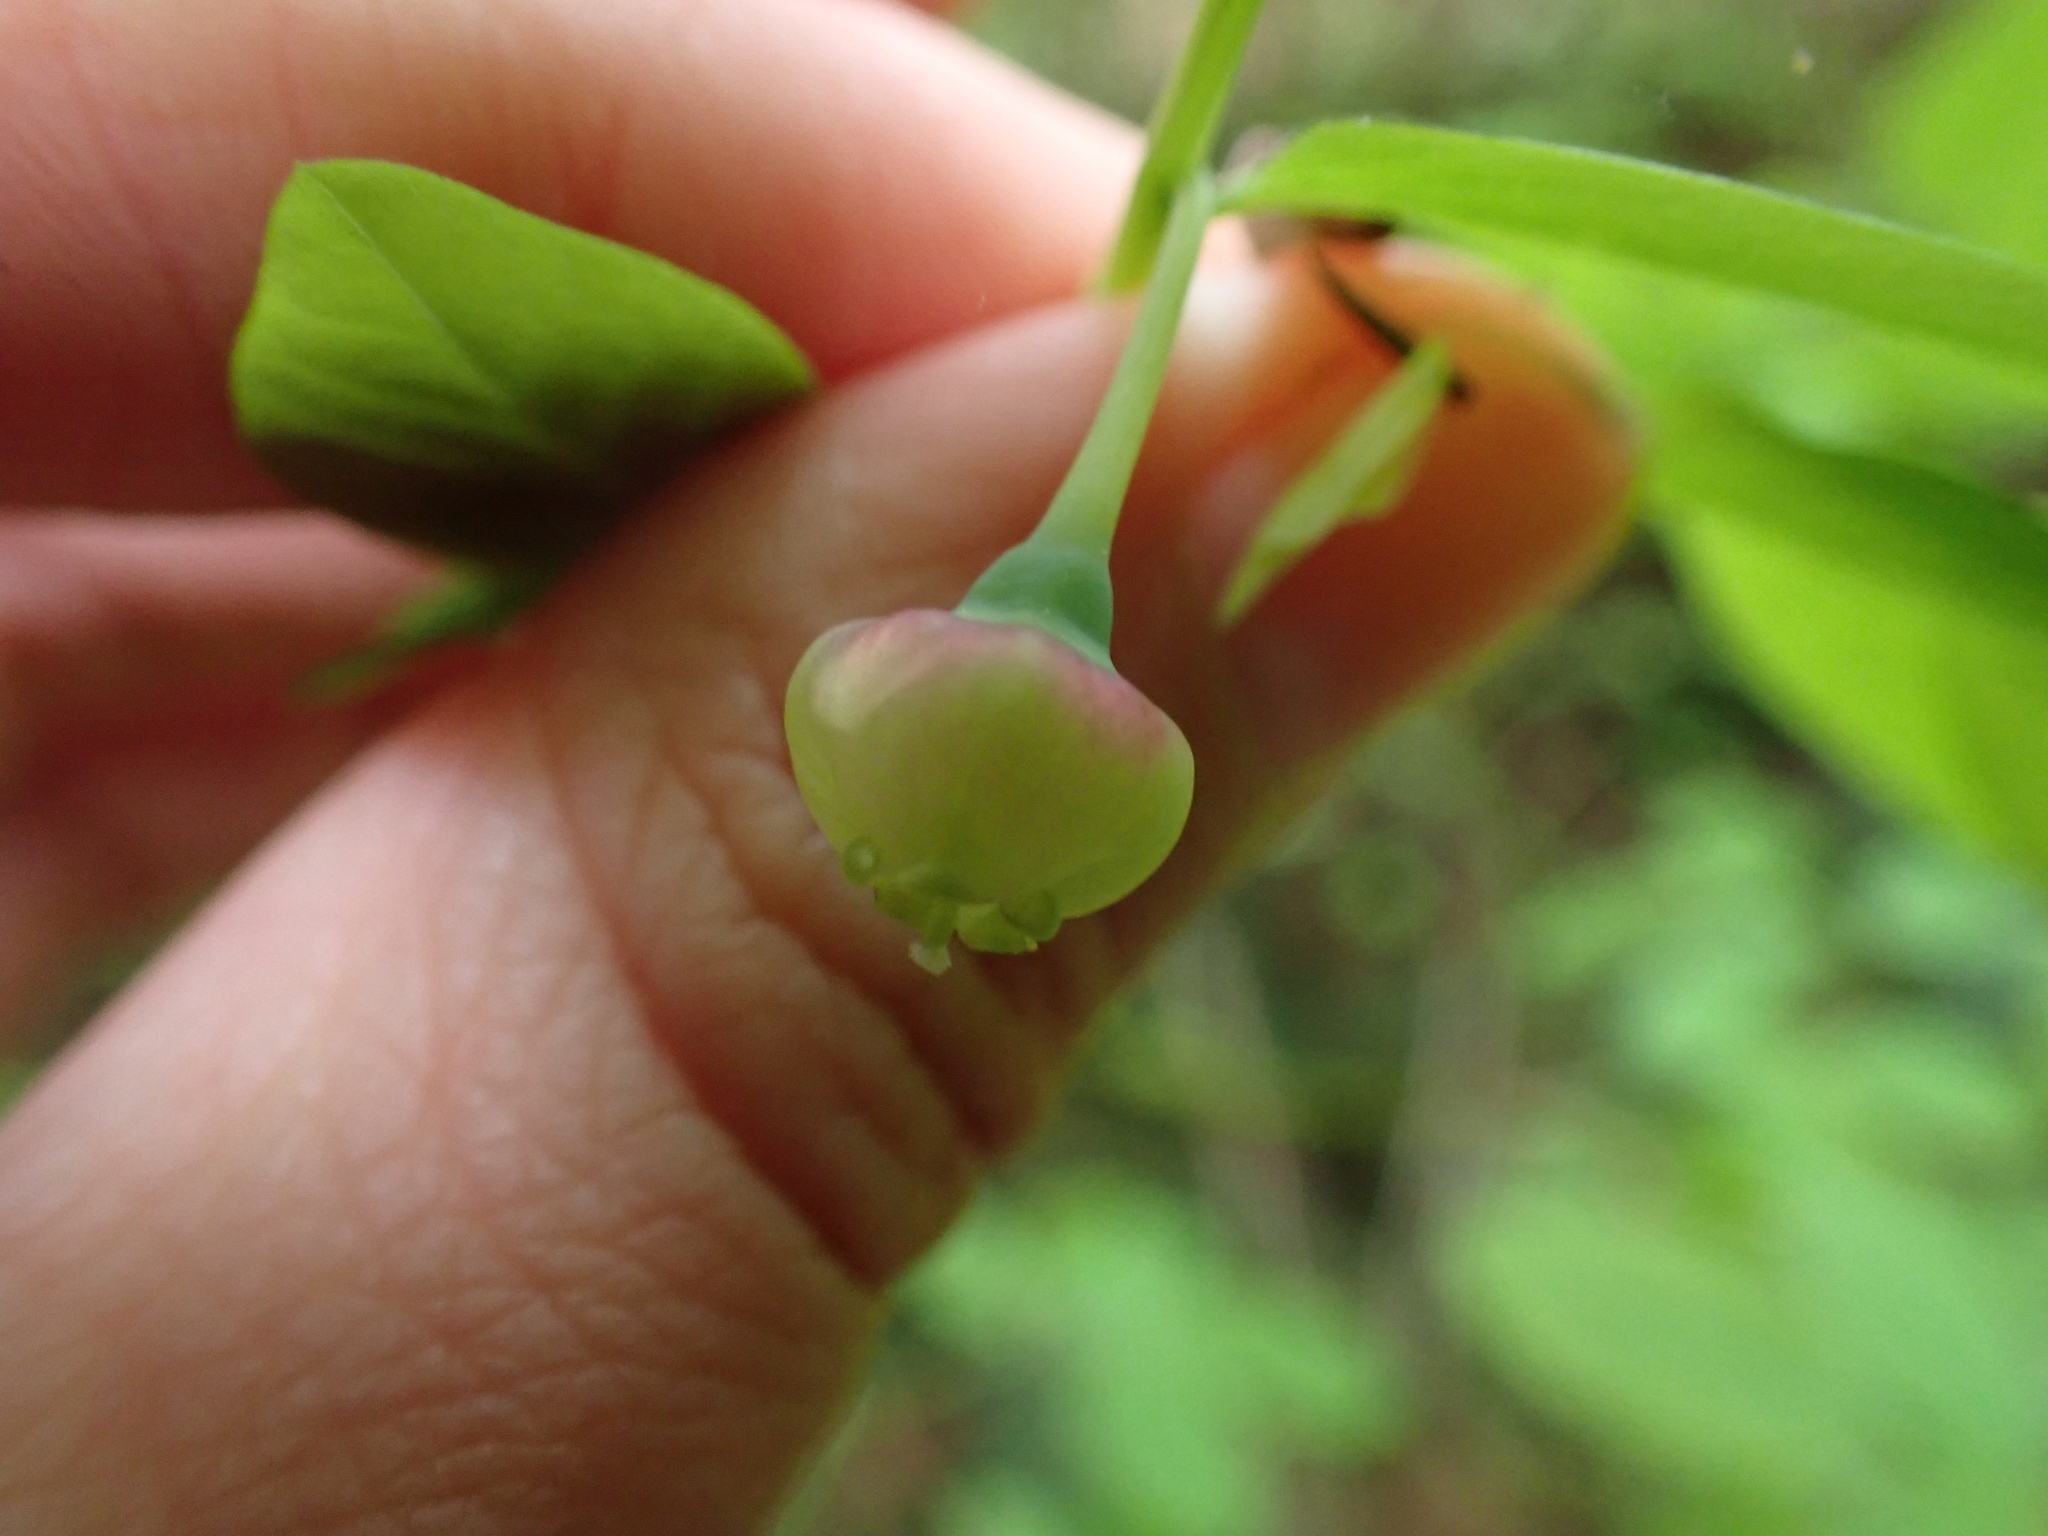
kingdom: Plantae
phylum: Tracheophyta
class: Magnoliopsida
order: Ericales
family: Ericaceae
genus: Vaccinium
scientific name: Vaccinium parvifolium
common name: Red-huckleberry
